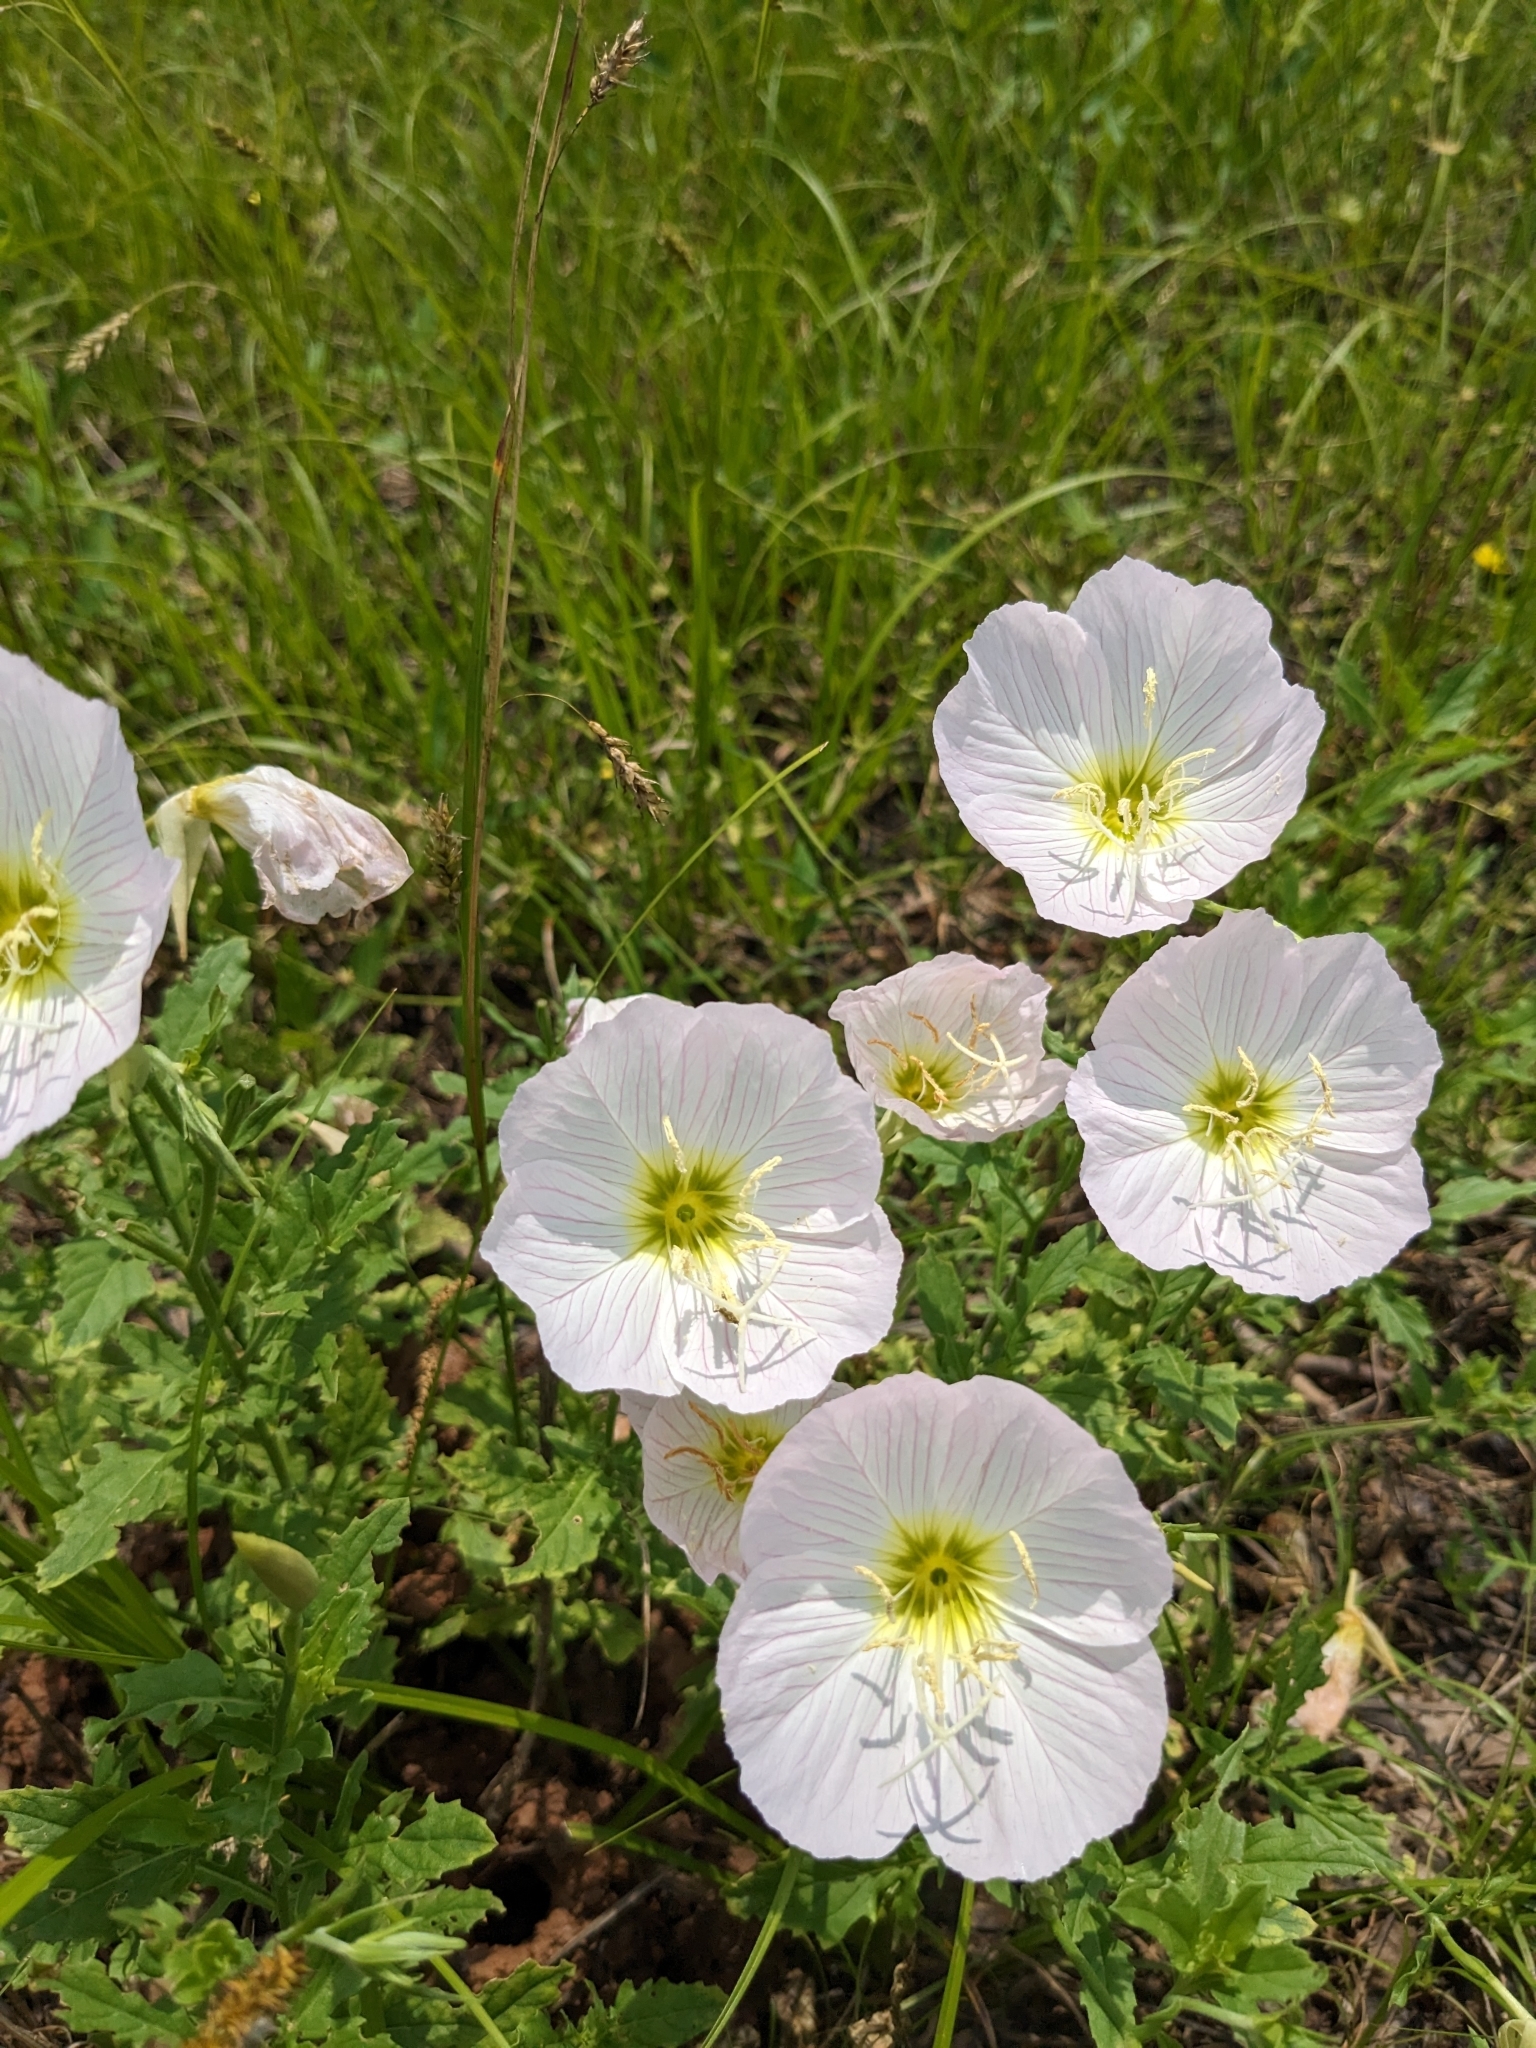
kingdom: Plantae
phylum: Tracheophyta
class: Magnoliopsida
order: Myrtales
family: Onagraceae
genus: Oenothera
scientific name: Oenothera speciosa
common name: White evening-primrose
